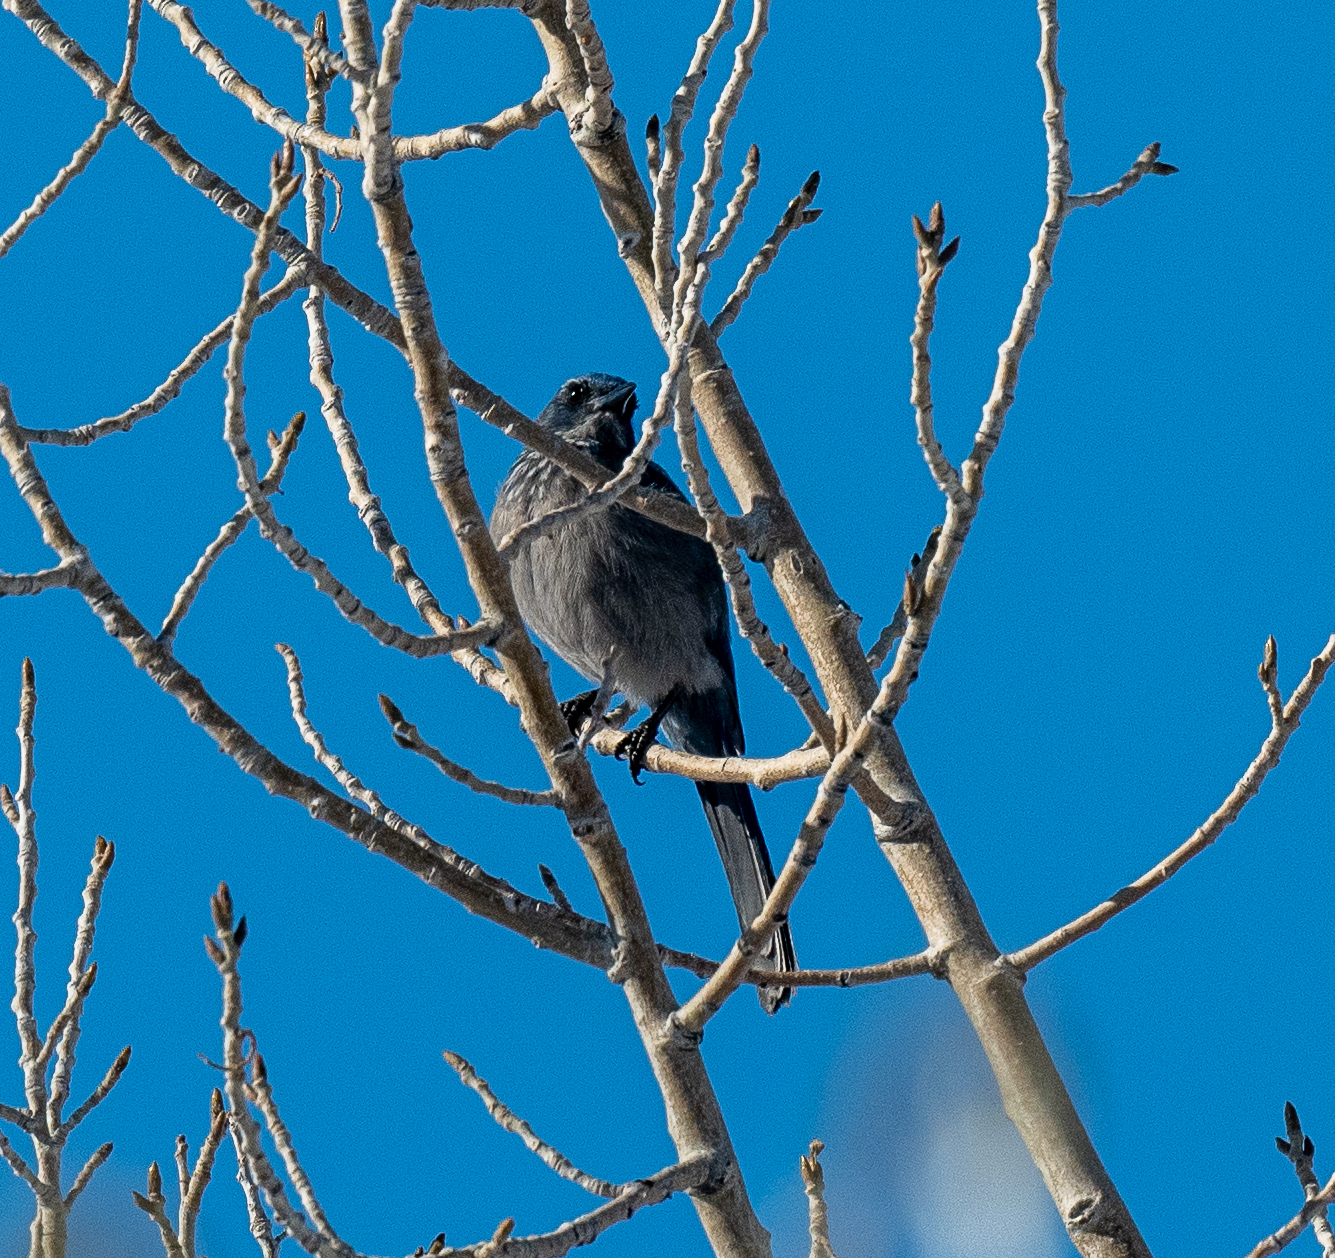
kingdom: Animalia
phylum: Chordata
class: Aves
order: Passeriformes
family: Corvidae
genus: Aphelocoma
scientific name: Aphelocoma woodhouseii
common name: Woodhouse's scrub-jay
